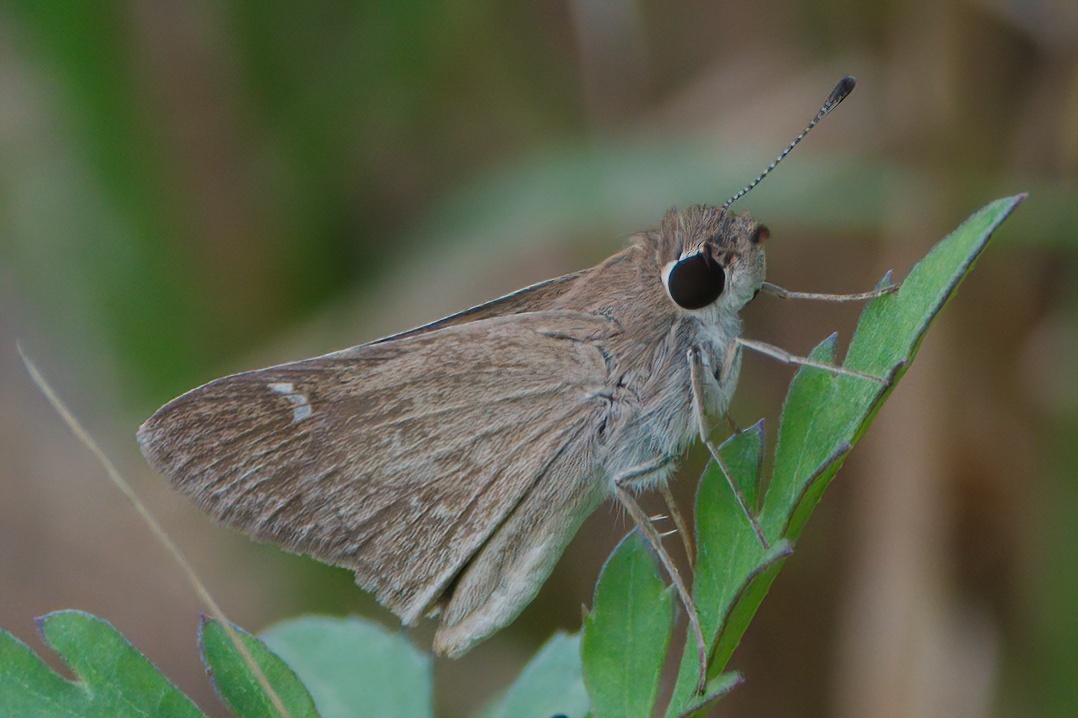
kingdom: Animalia
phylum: Arthropoda
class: Insecta
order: Lepidoptera
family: Hesperiidae
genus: Lerodea
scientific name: Lerodea eufala
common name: Eufala skipper
